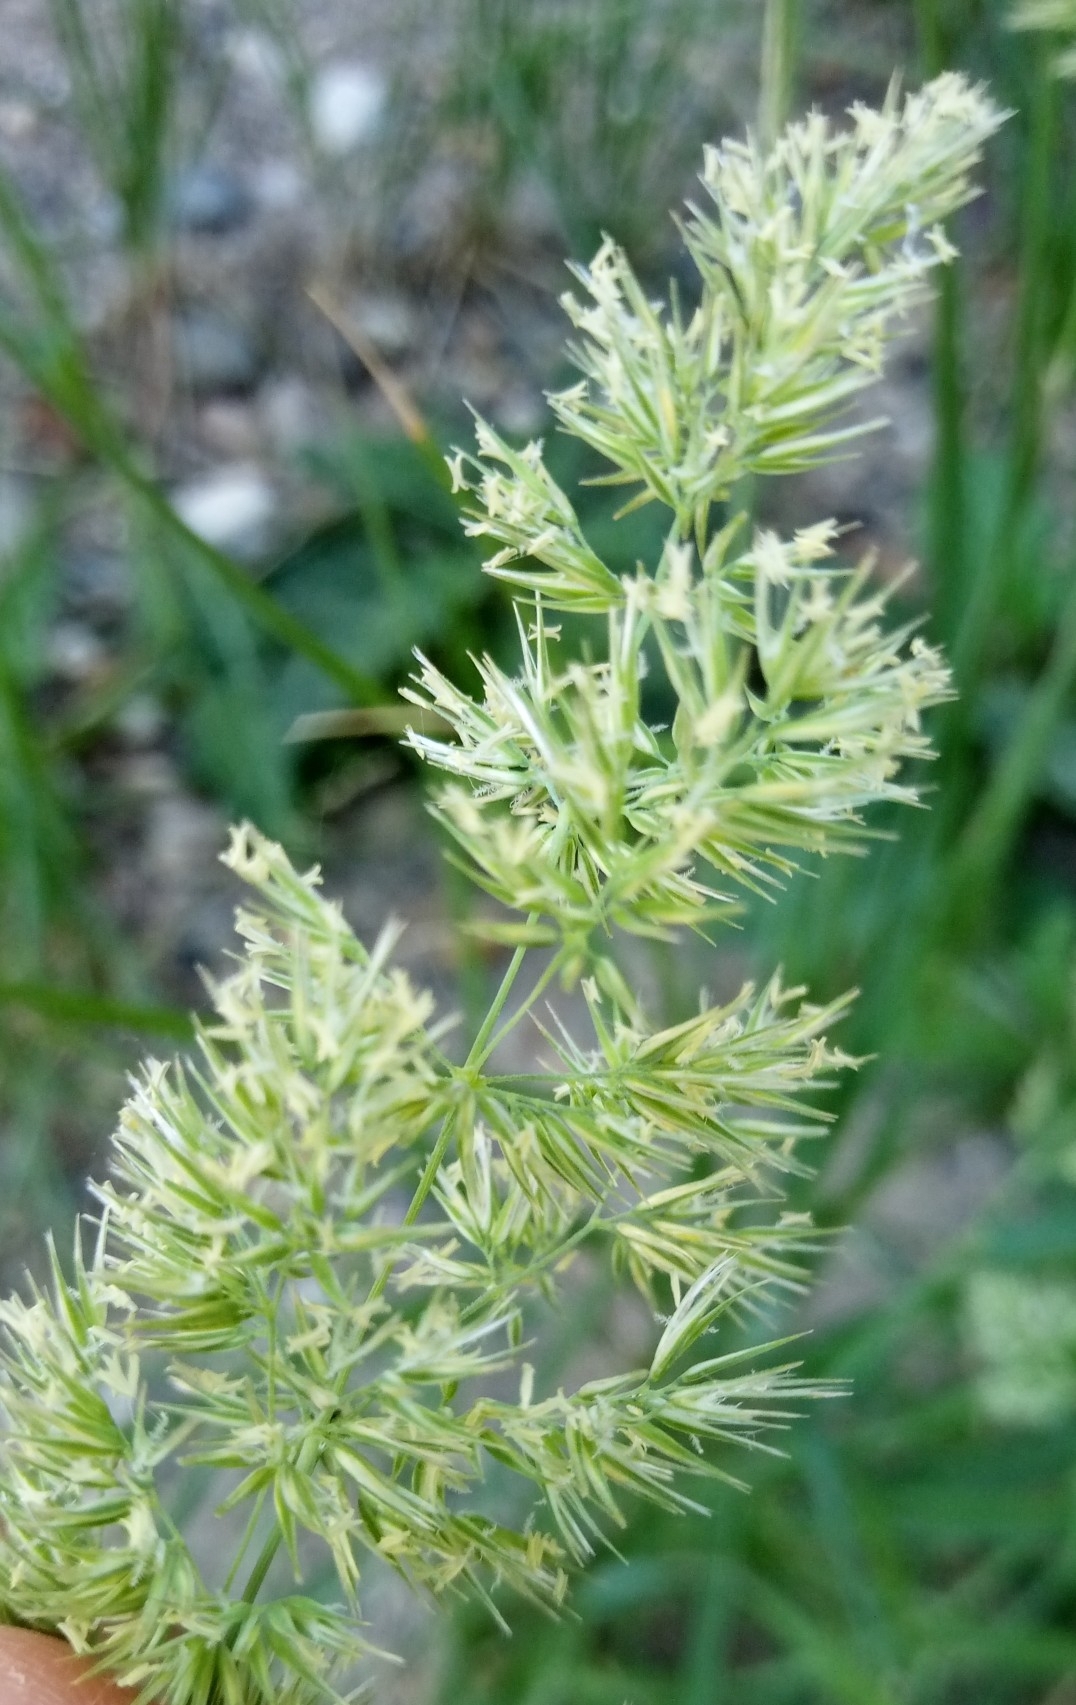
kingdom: Plantae
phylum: Tracheophyta
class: Liliopsida
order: Poales
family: Poaceae
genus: Calamagrostis
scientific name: Calamagrostis epigejos
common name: Wood small-reed
